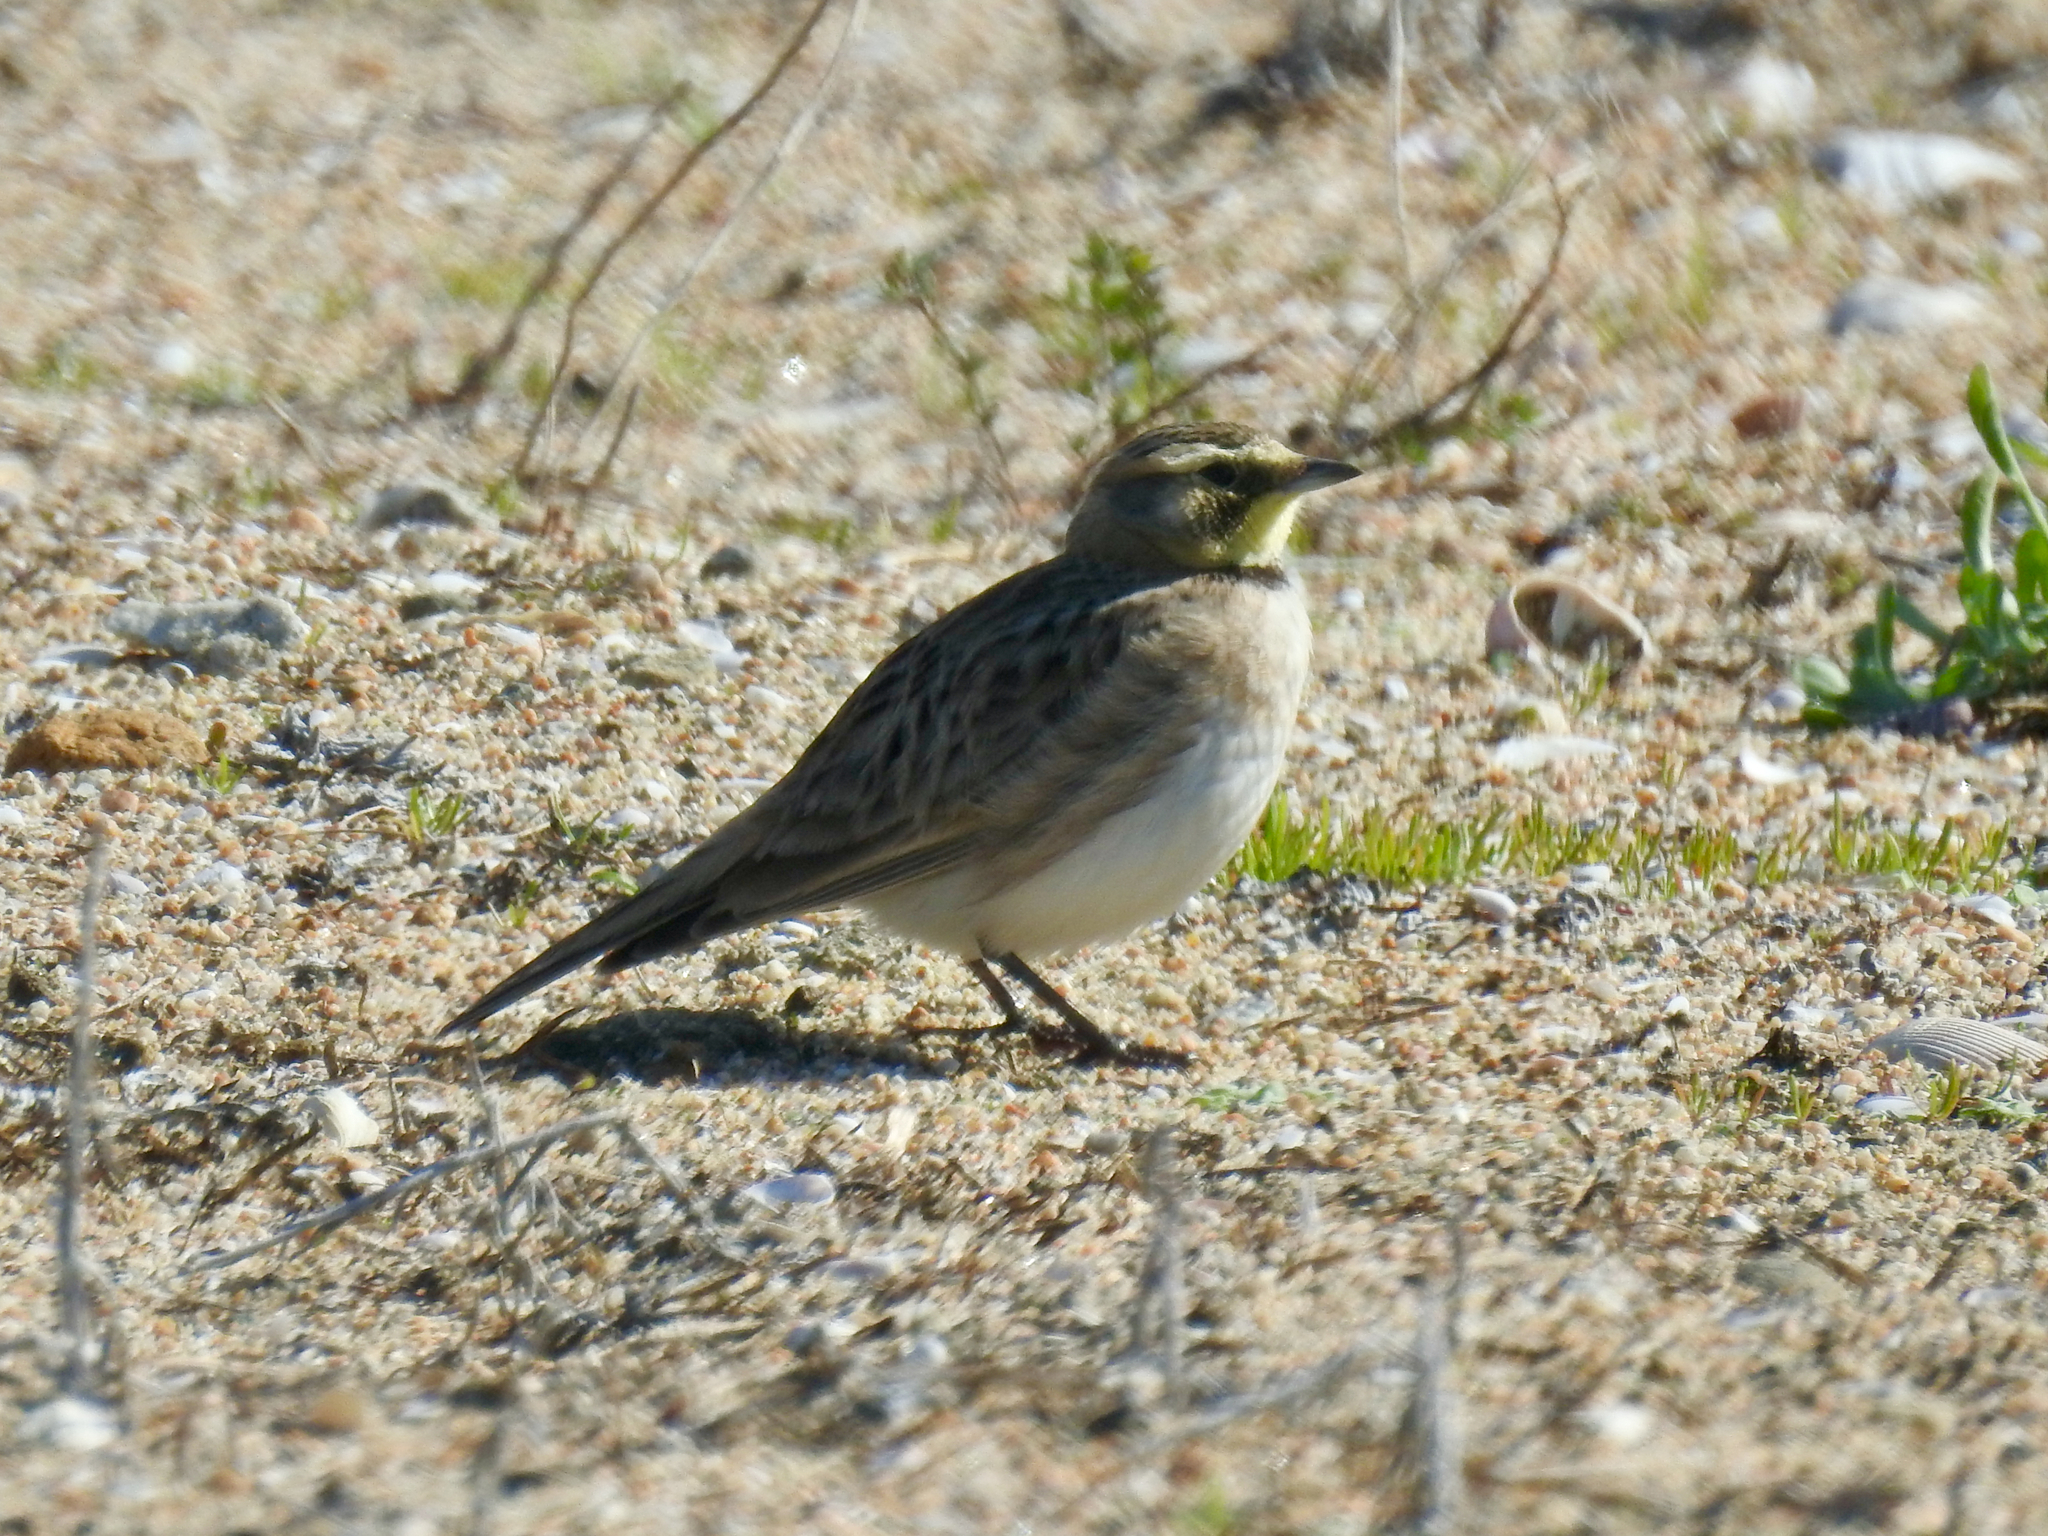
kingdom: Animalia
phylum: Chordata
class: Aves
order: Passeriformes
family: Alaudidae
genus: Eremophila
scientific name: Eremophila alpestris
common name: Horned lark
